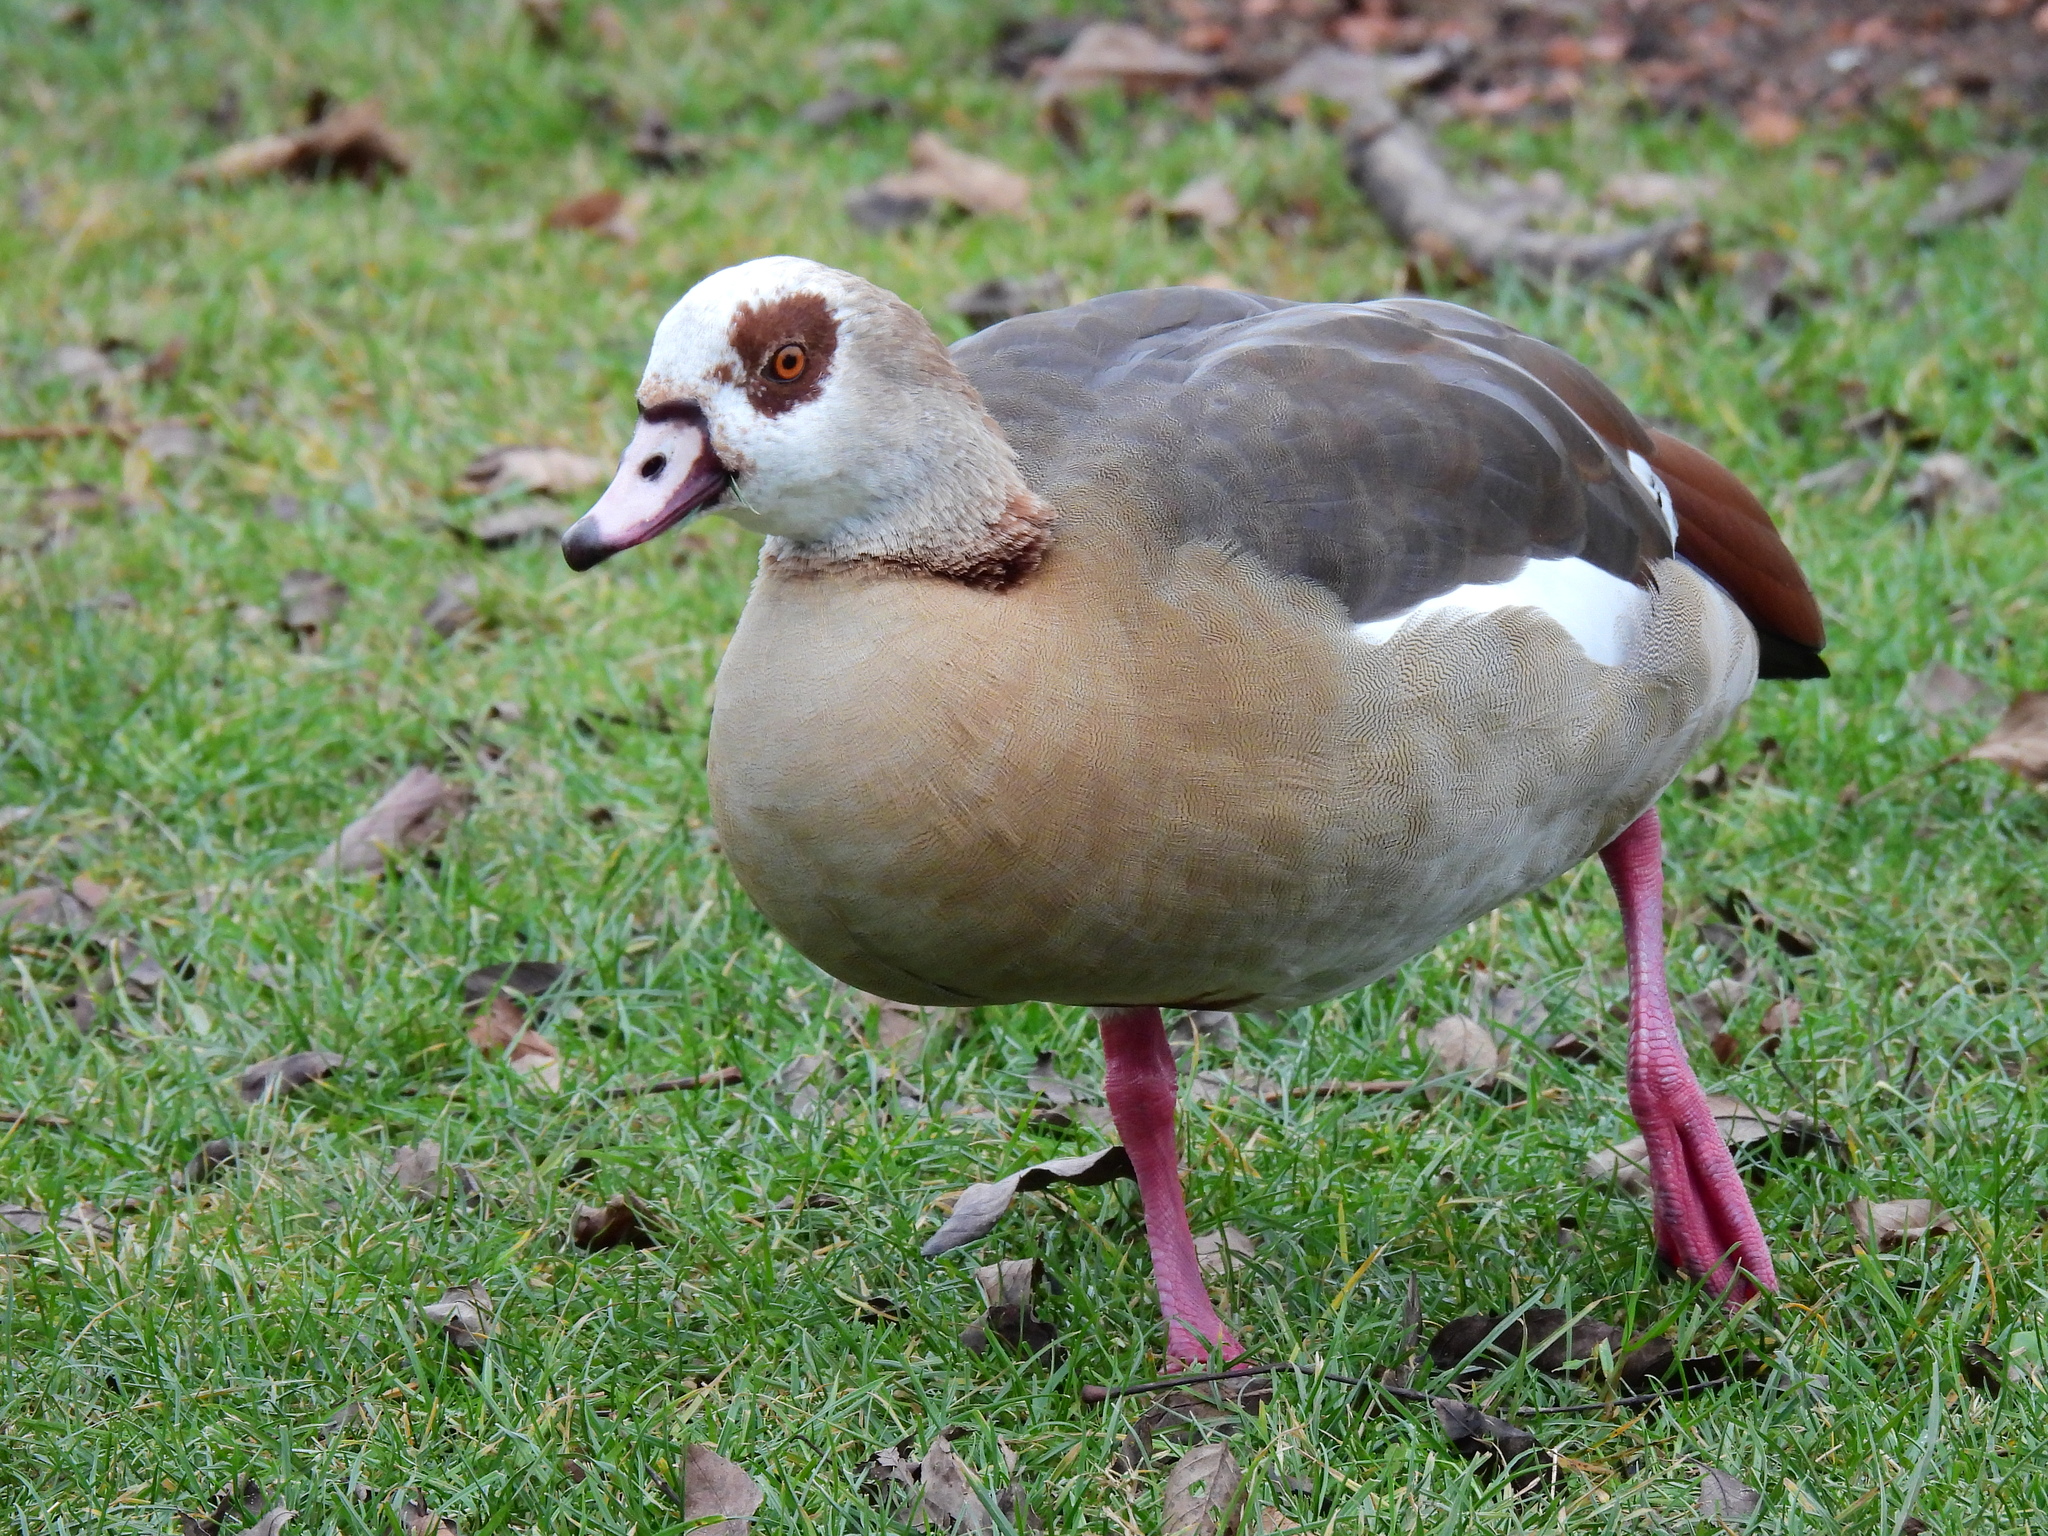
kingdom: Animalia
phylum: Chordata
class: Aves
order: Anseriformes
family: Anatidae
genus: Alopochen
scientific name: Alopochen aegyptiaca
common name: Egyptian goose
